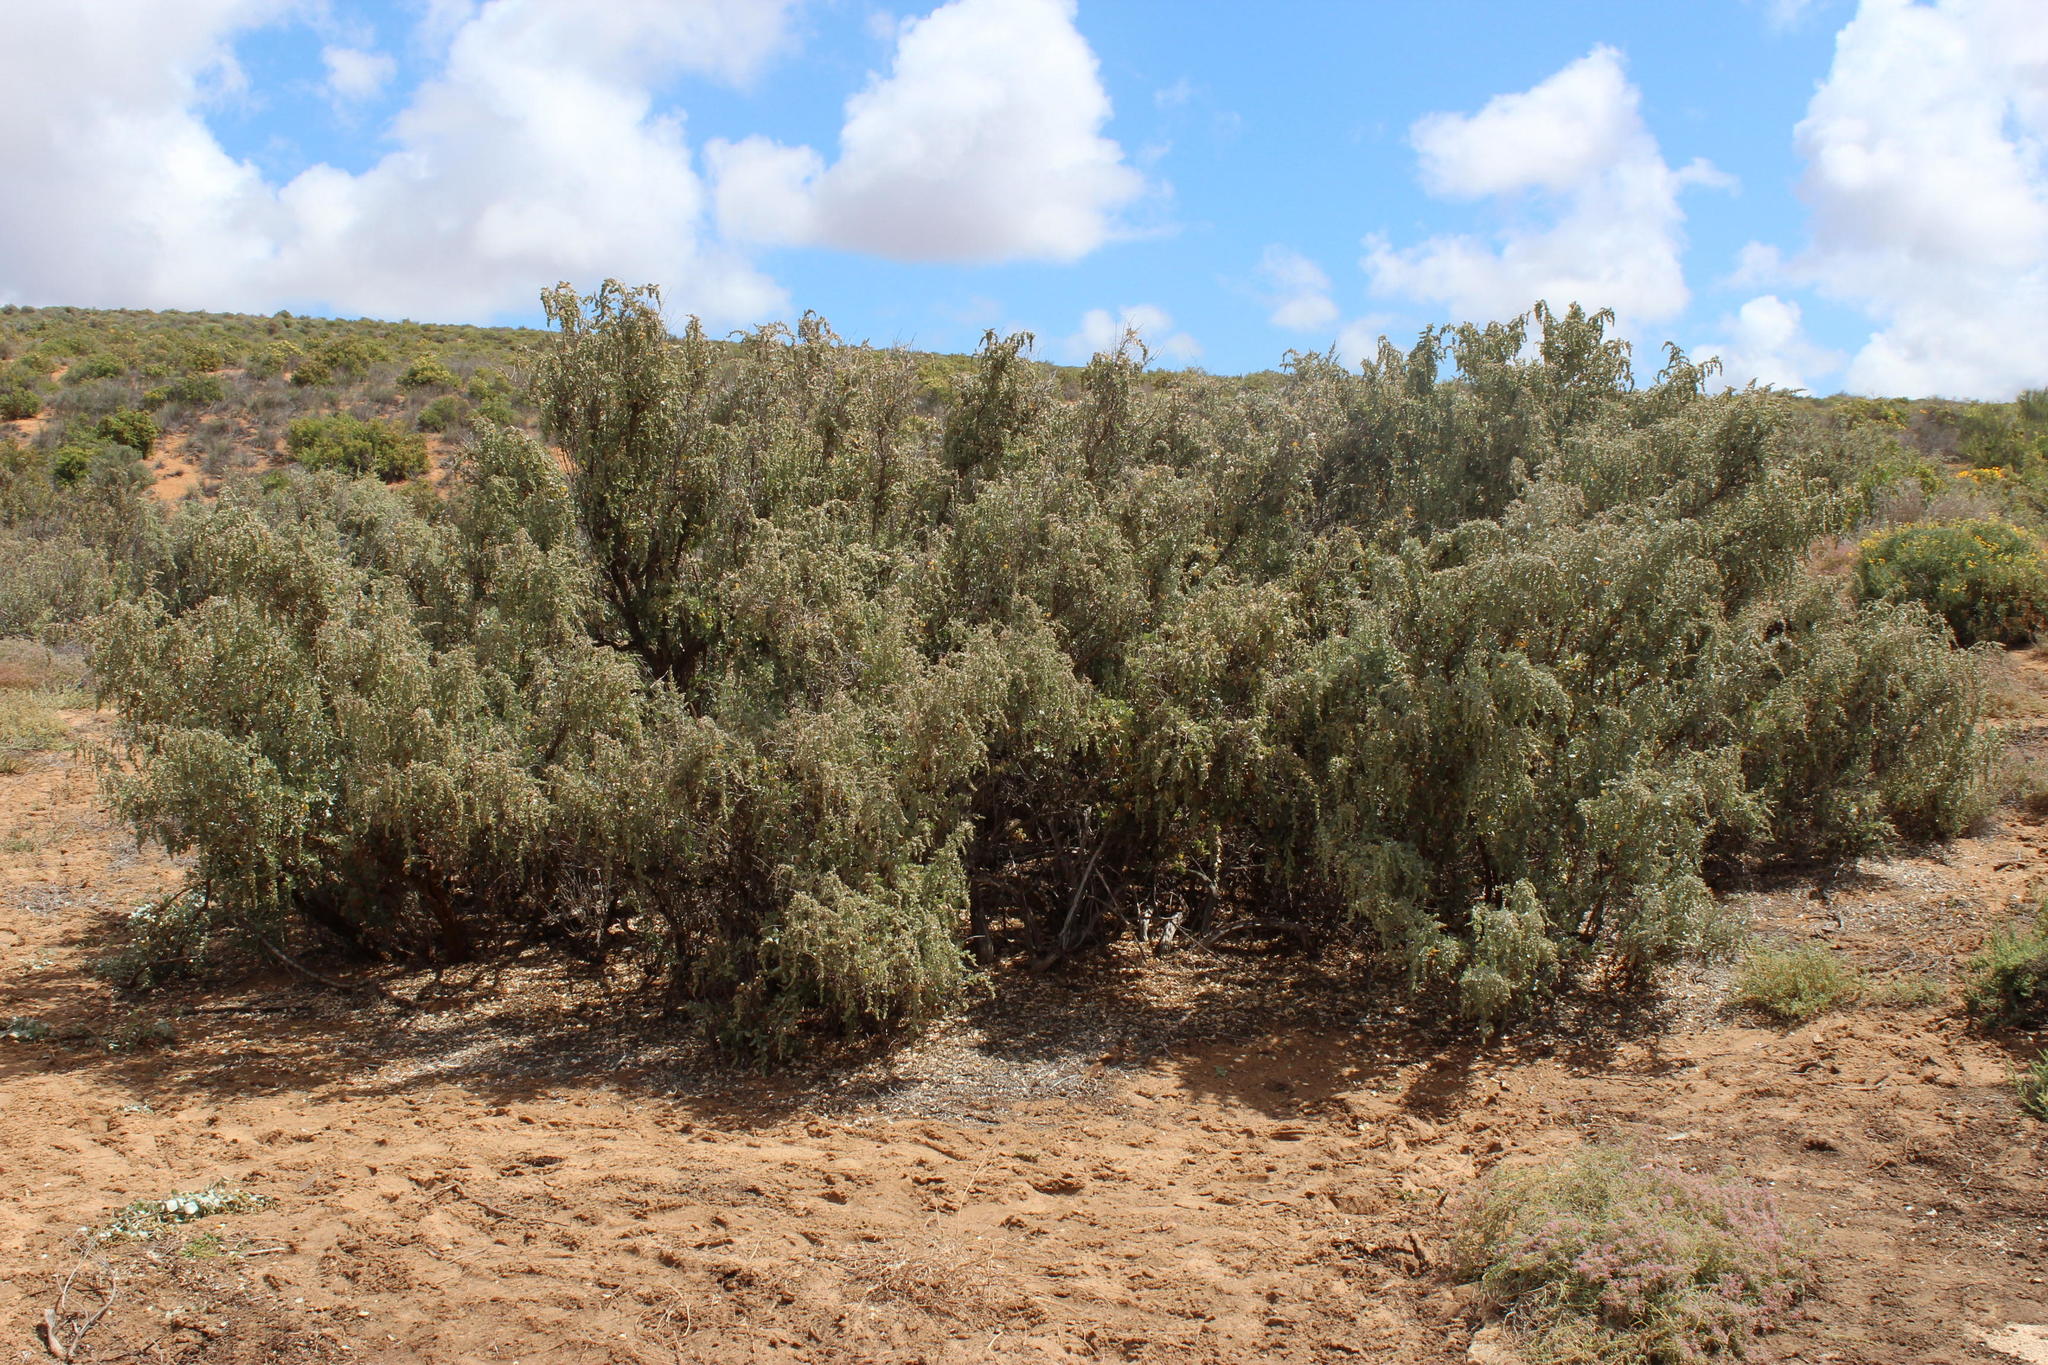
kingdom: Plantae
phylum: Tracheophyta
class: Magnoliopsida
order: Caryophyllales
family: Amaranthaceae
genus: Atriplex
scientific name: Atriplex nummularia
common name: Bluegreen saltbush
